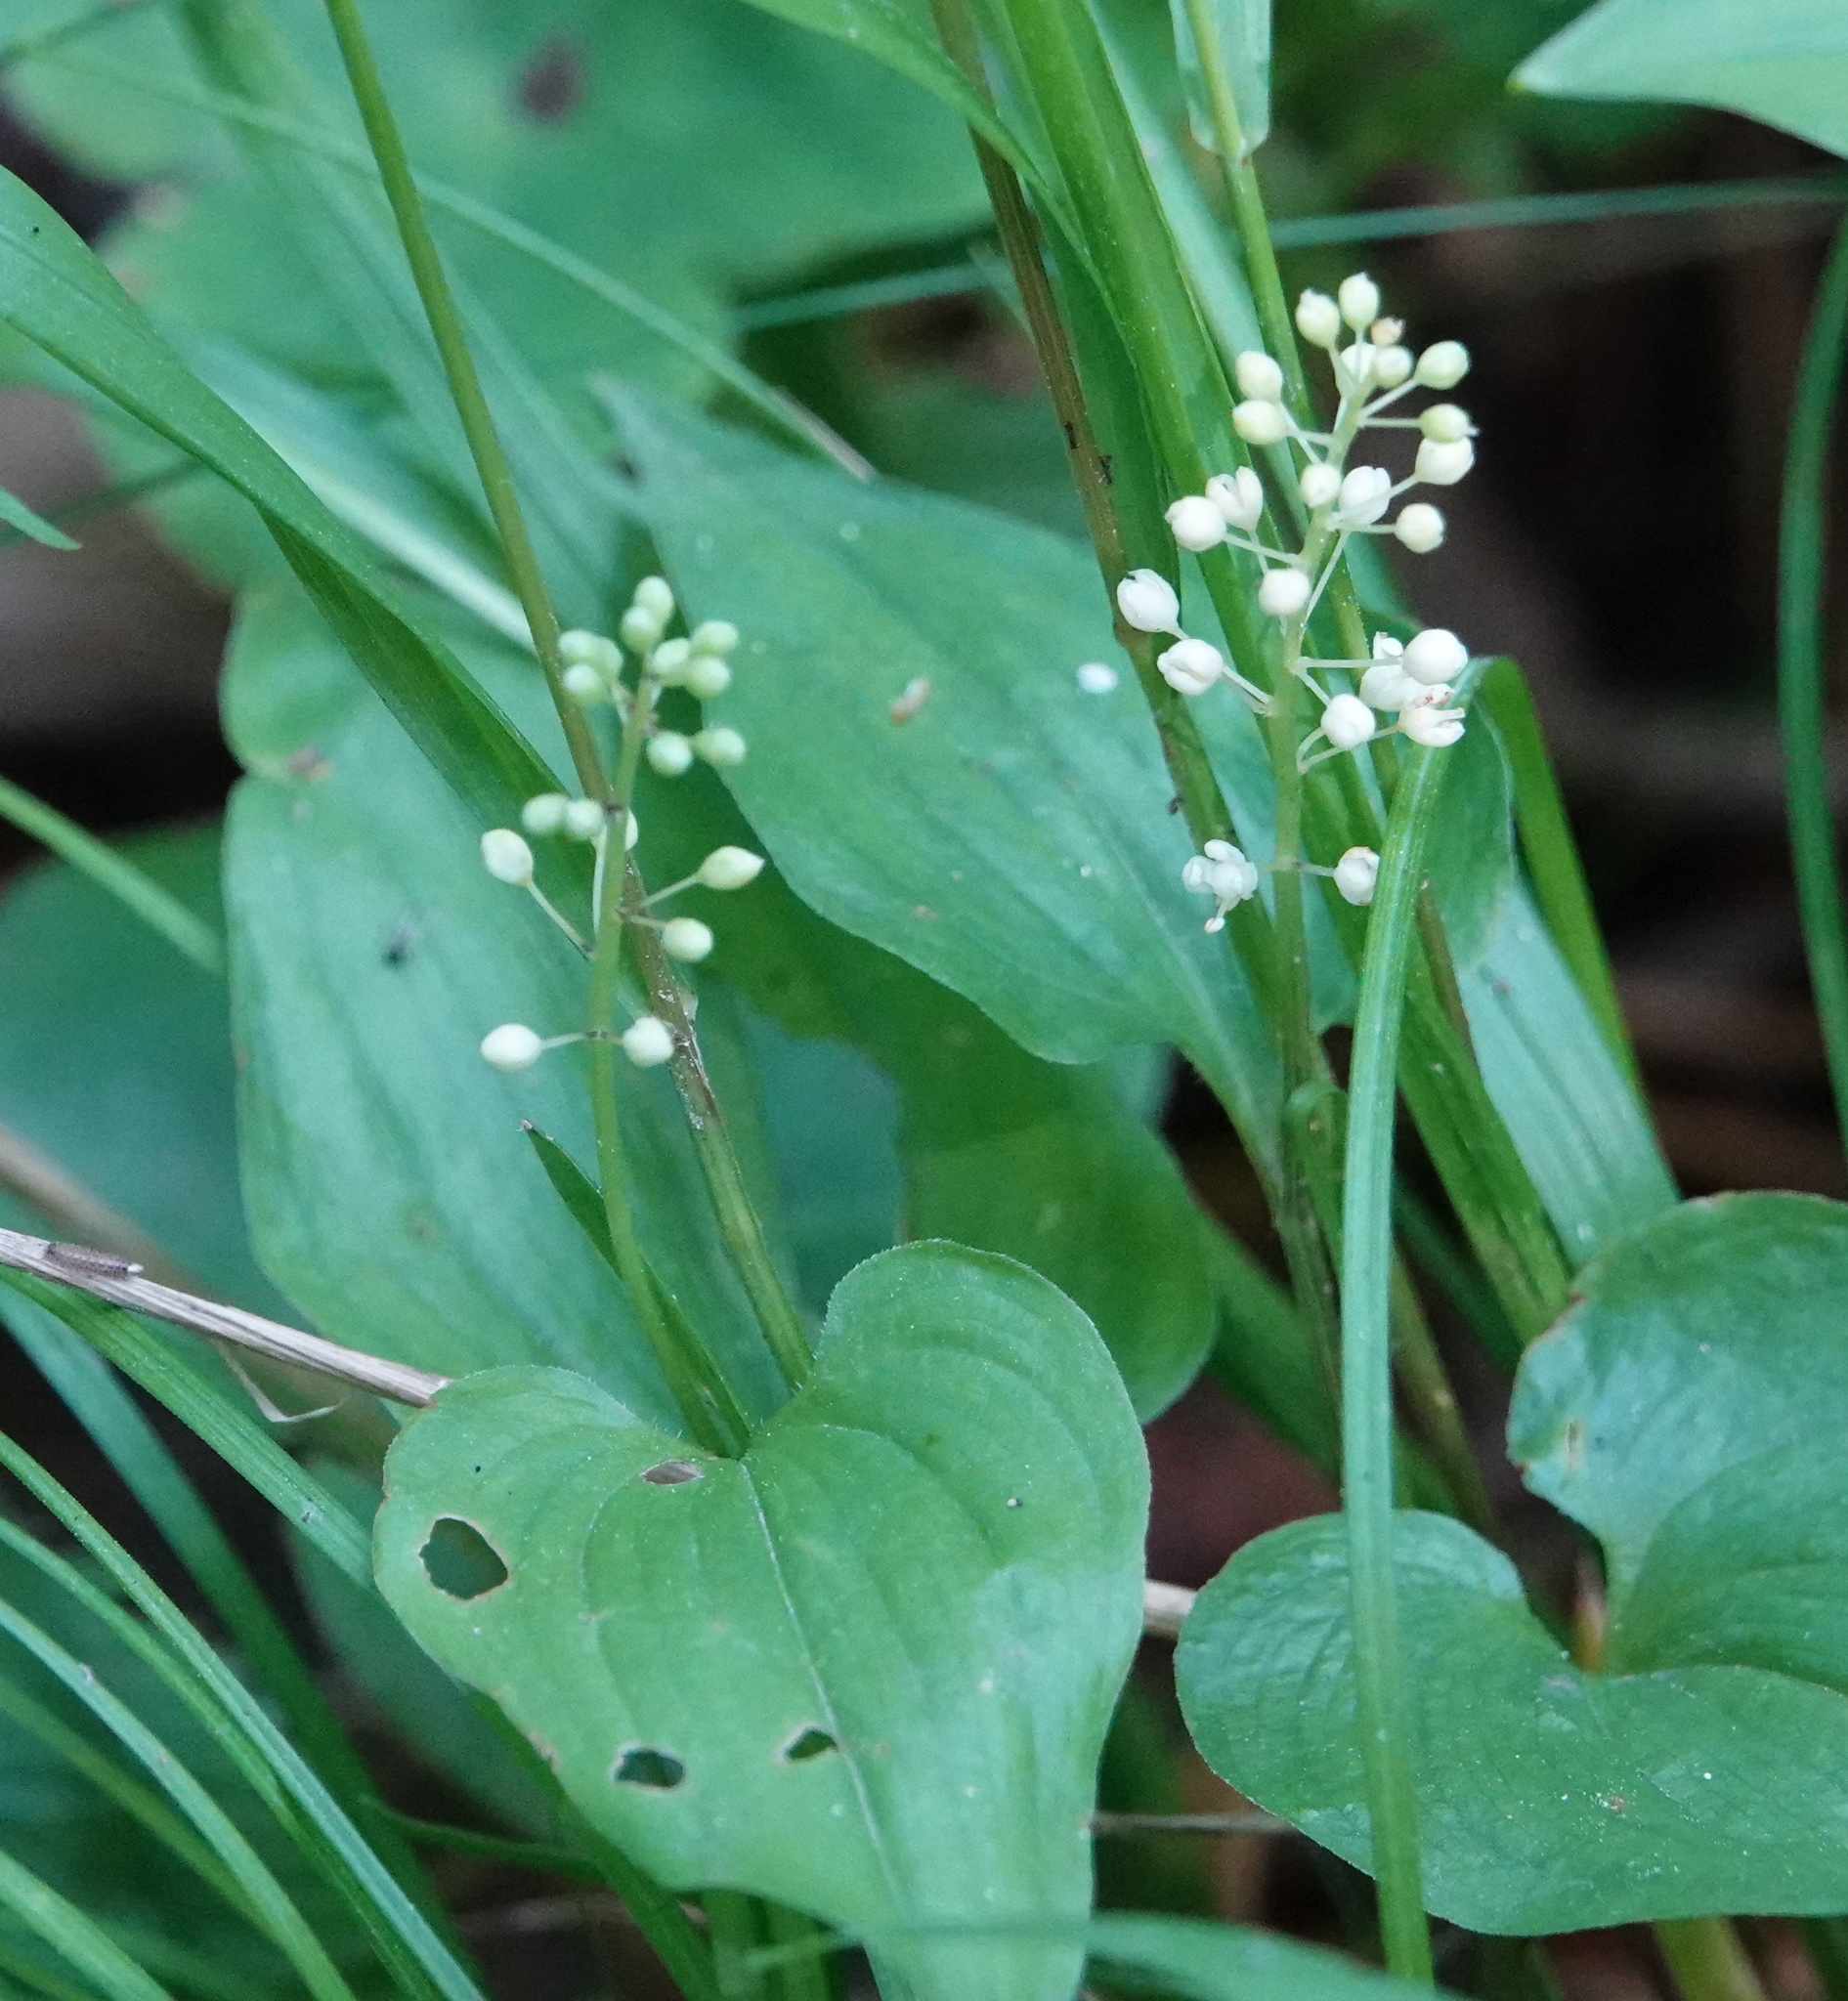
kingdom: Plantae
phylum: Tracheophyta
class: Liliopsida
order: Asparagales
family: Asparagaceae
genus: Maianthemum
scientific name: Maianthemum bifolium
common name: May lily
